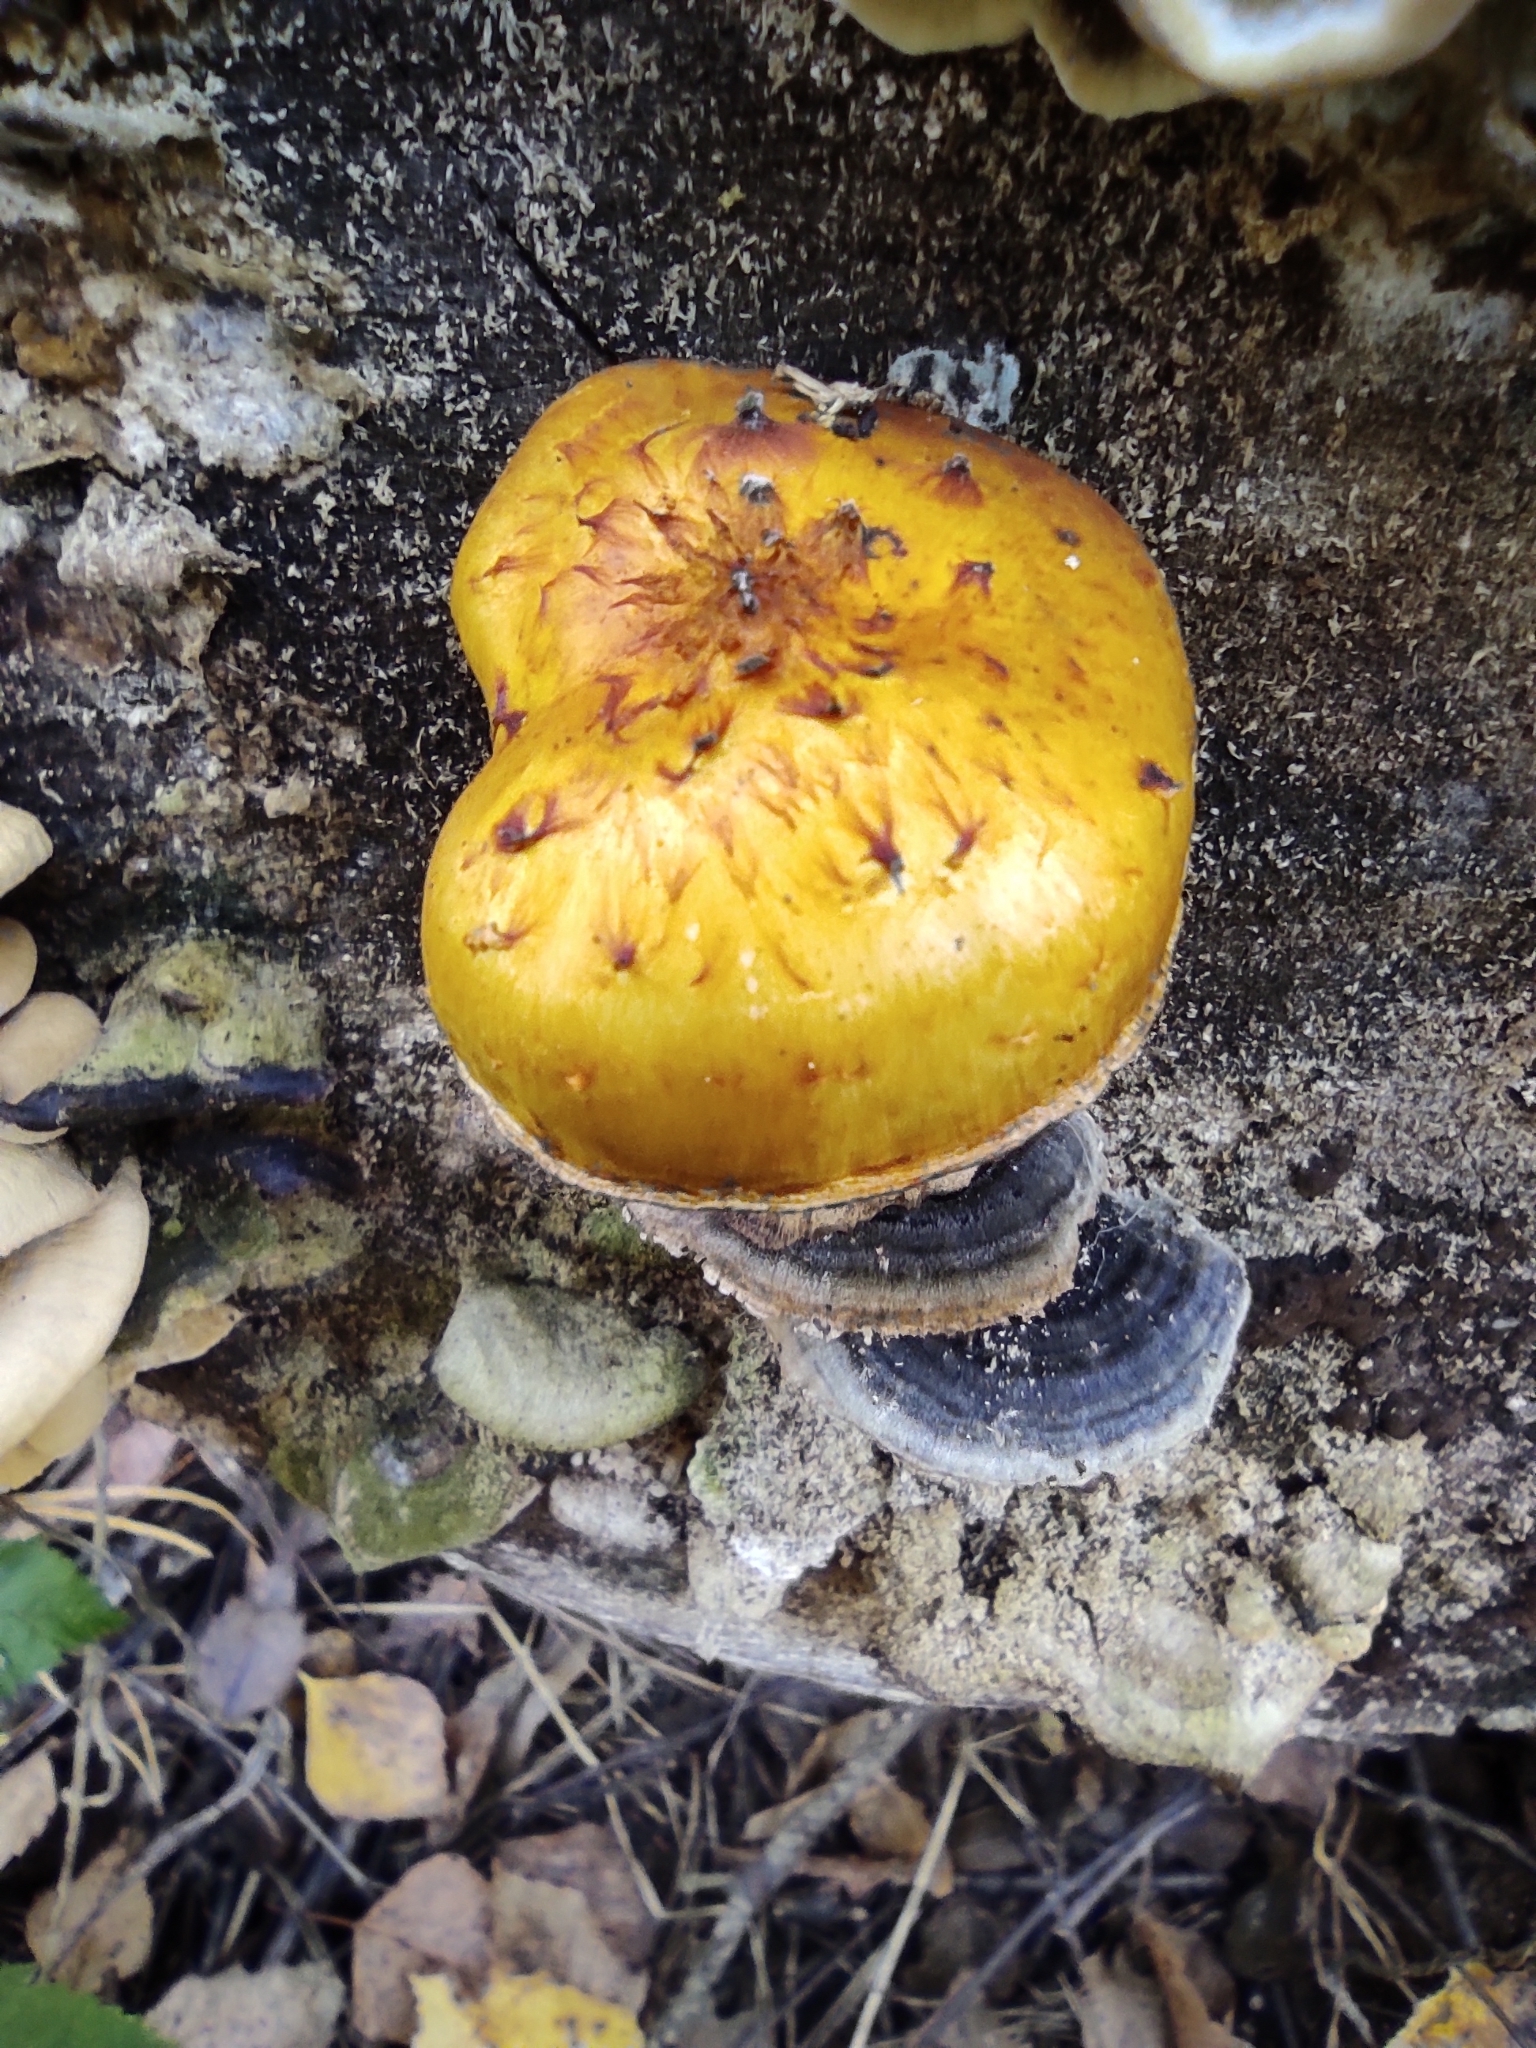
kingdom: Fungi
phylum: Basidiomycota
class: Agaricomycetes
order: Agaricales
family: Strophariaceae
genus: Pholiota
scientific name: Pholiota aurivella
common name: Golden scalycap
